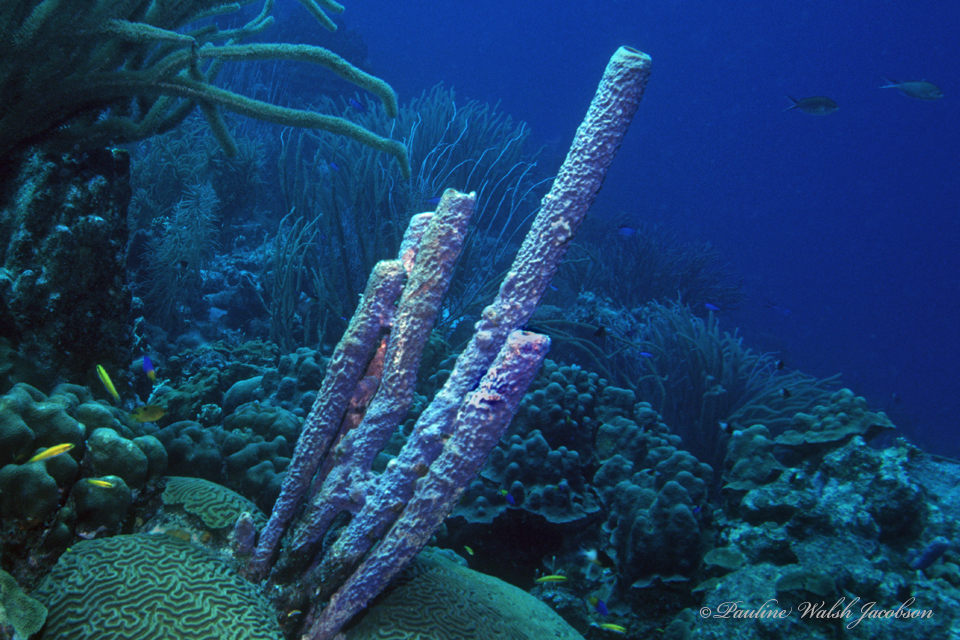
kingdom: Animalia
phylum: Porifera
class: Demospongiae
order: Verongiida
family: Aplysinidae
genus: Aplysina
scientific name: Aplysina archeri
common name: Stove-pipe sponge
